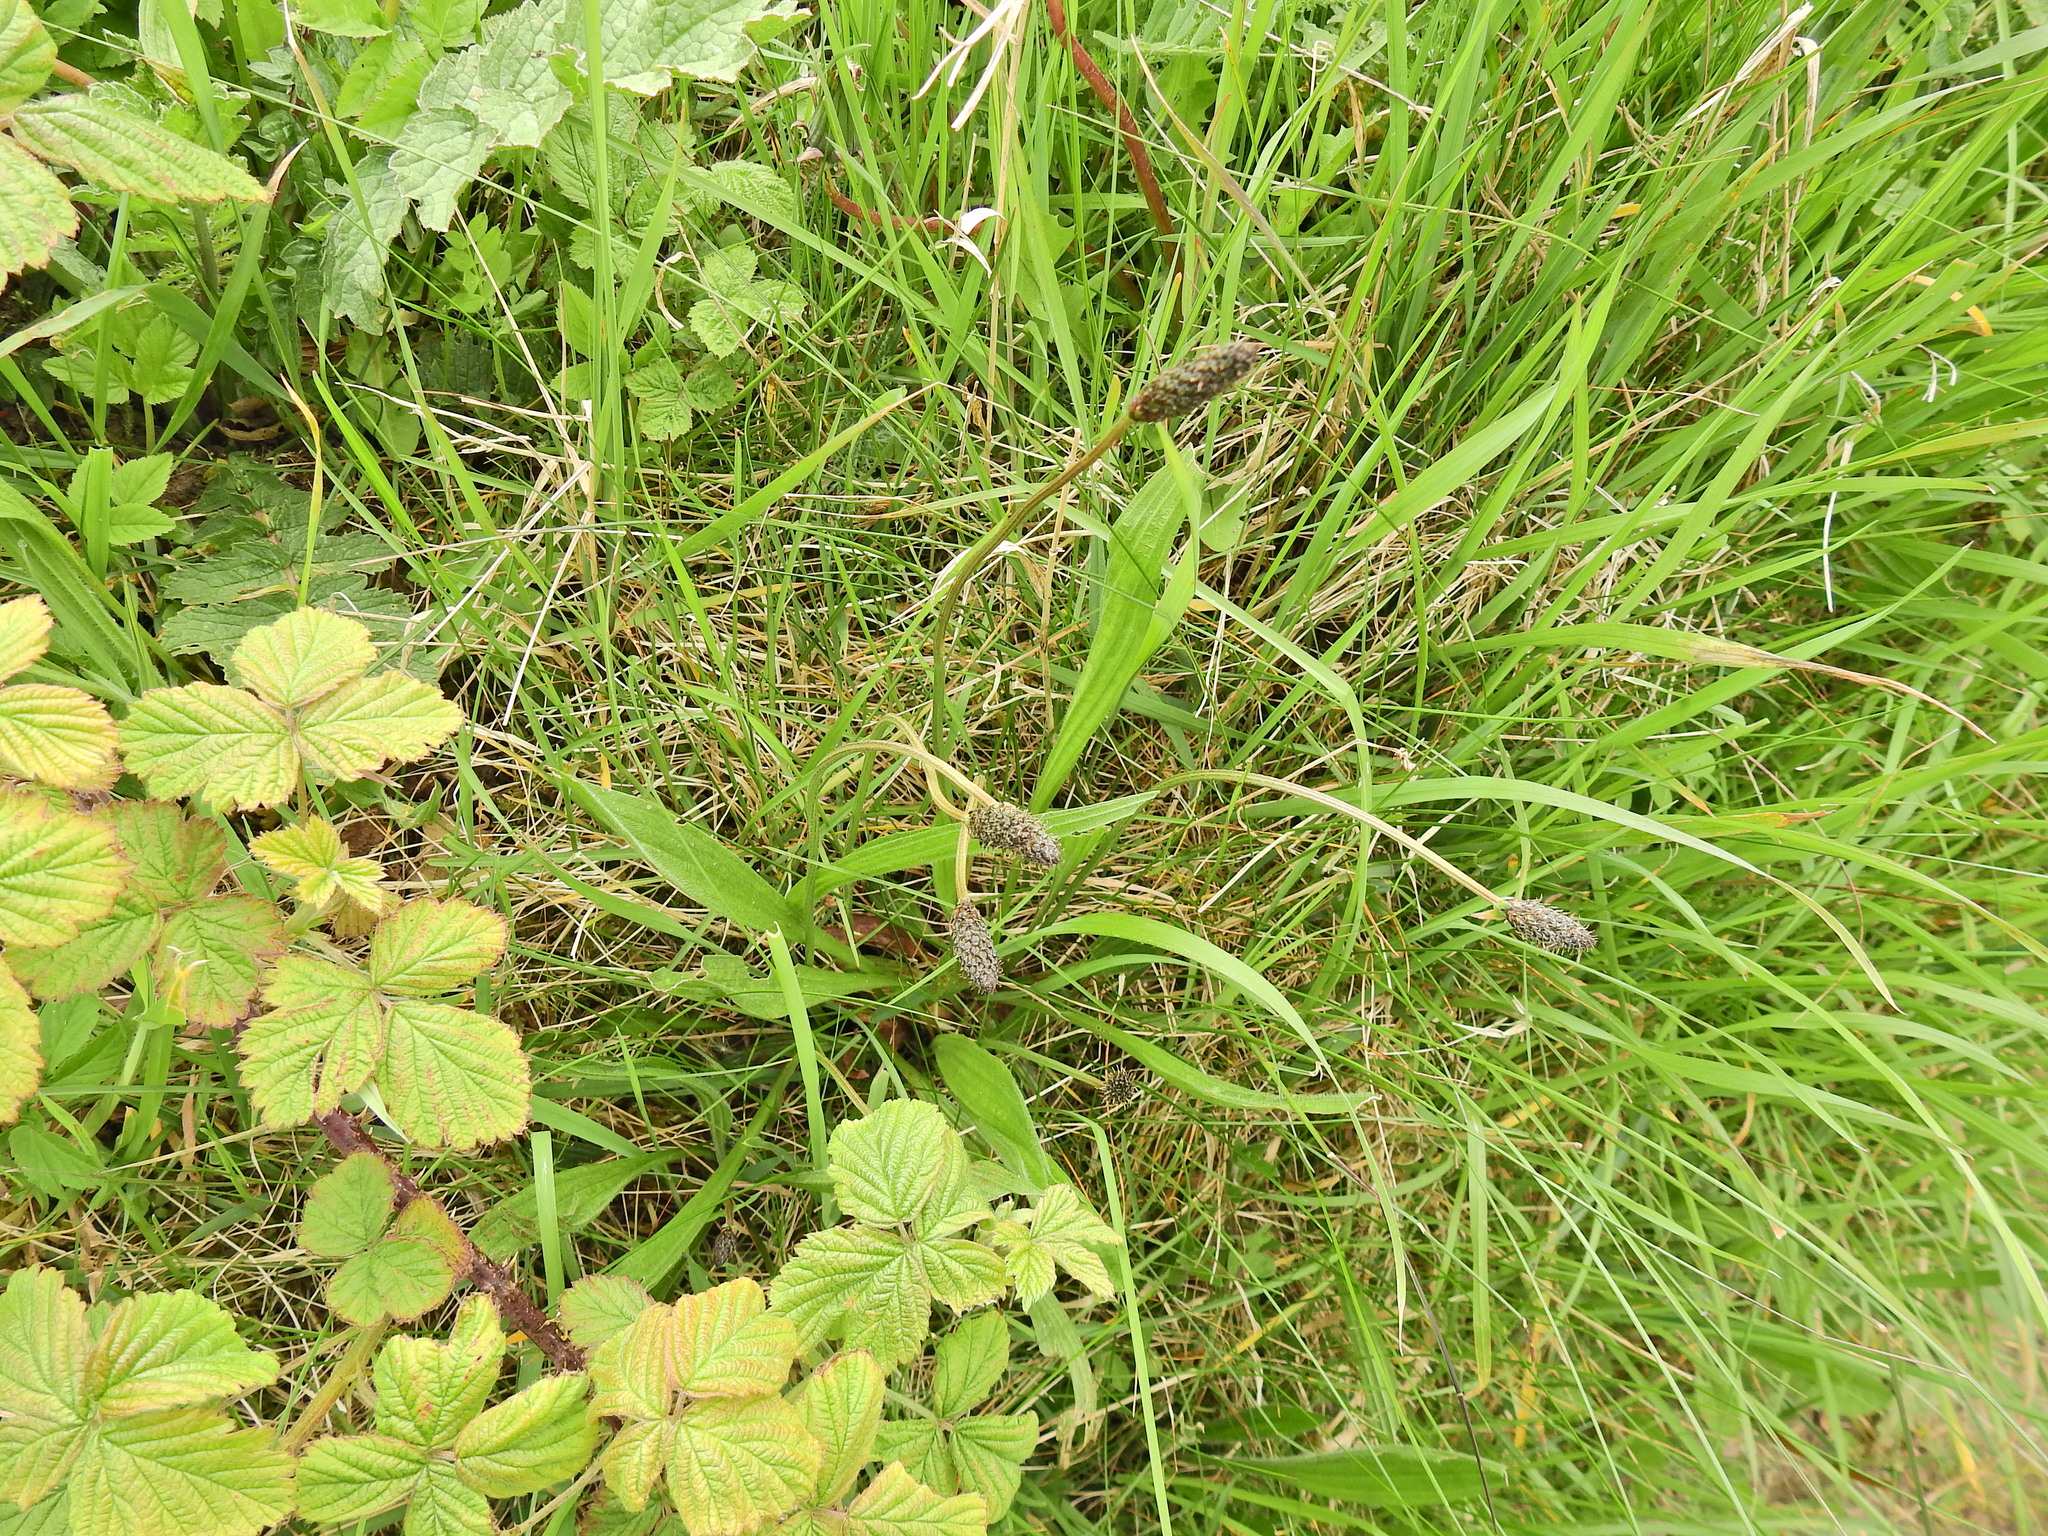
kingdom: Plantae
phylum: Tracheophyta
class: Magnoliopsida
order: Lamiales
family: Plantaginaceae
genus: Plantago
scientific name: Plantago lanceolata
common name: Ribwort plantain
